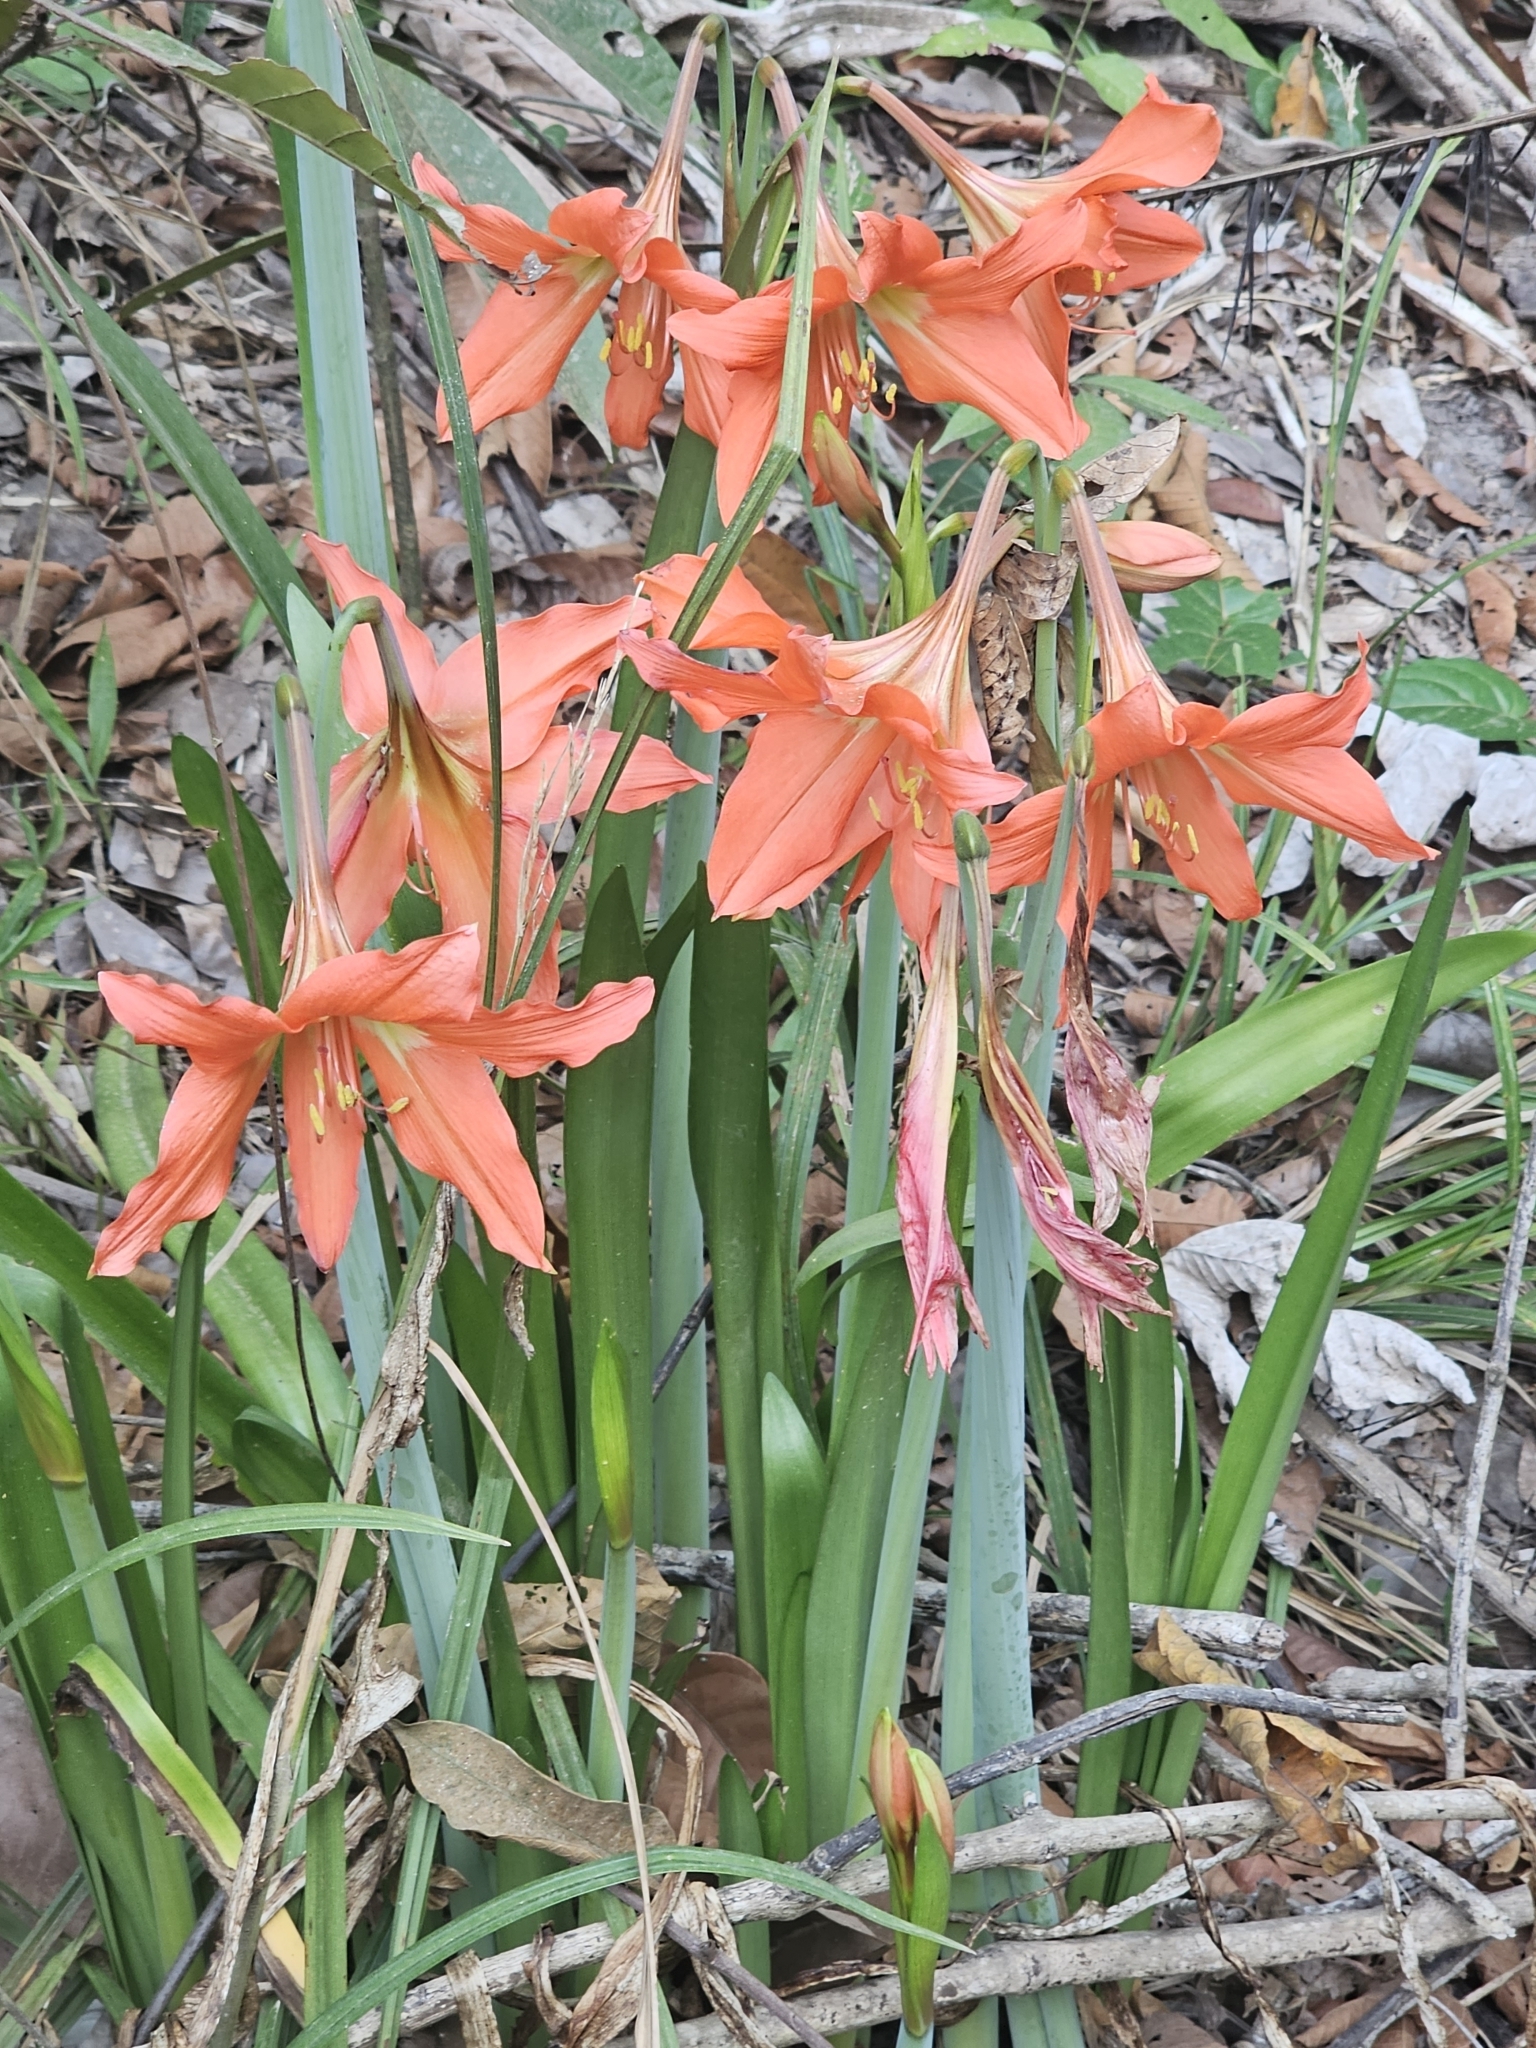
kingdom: Plantae
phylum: Tracheophyta
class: Liliopsida
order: Asparagales
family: Amaryllidaceae
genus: Hippeastrum
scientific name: Hippeastrum puniceum
